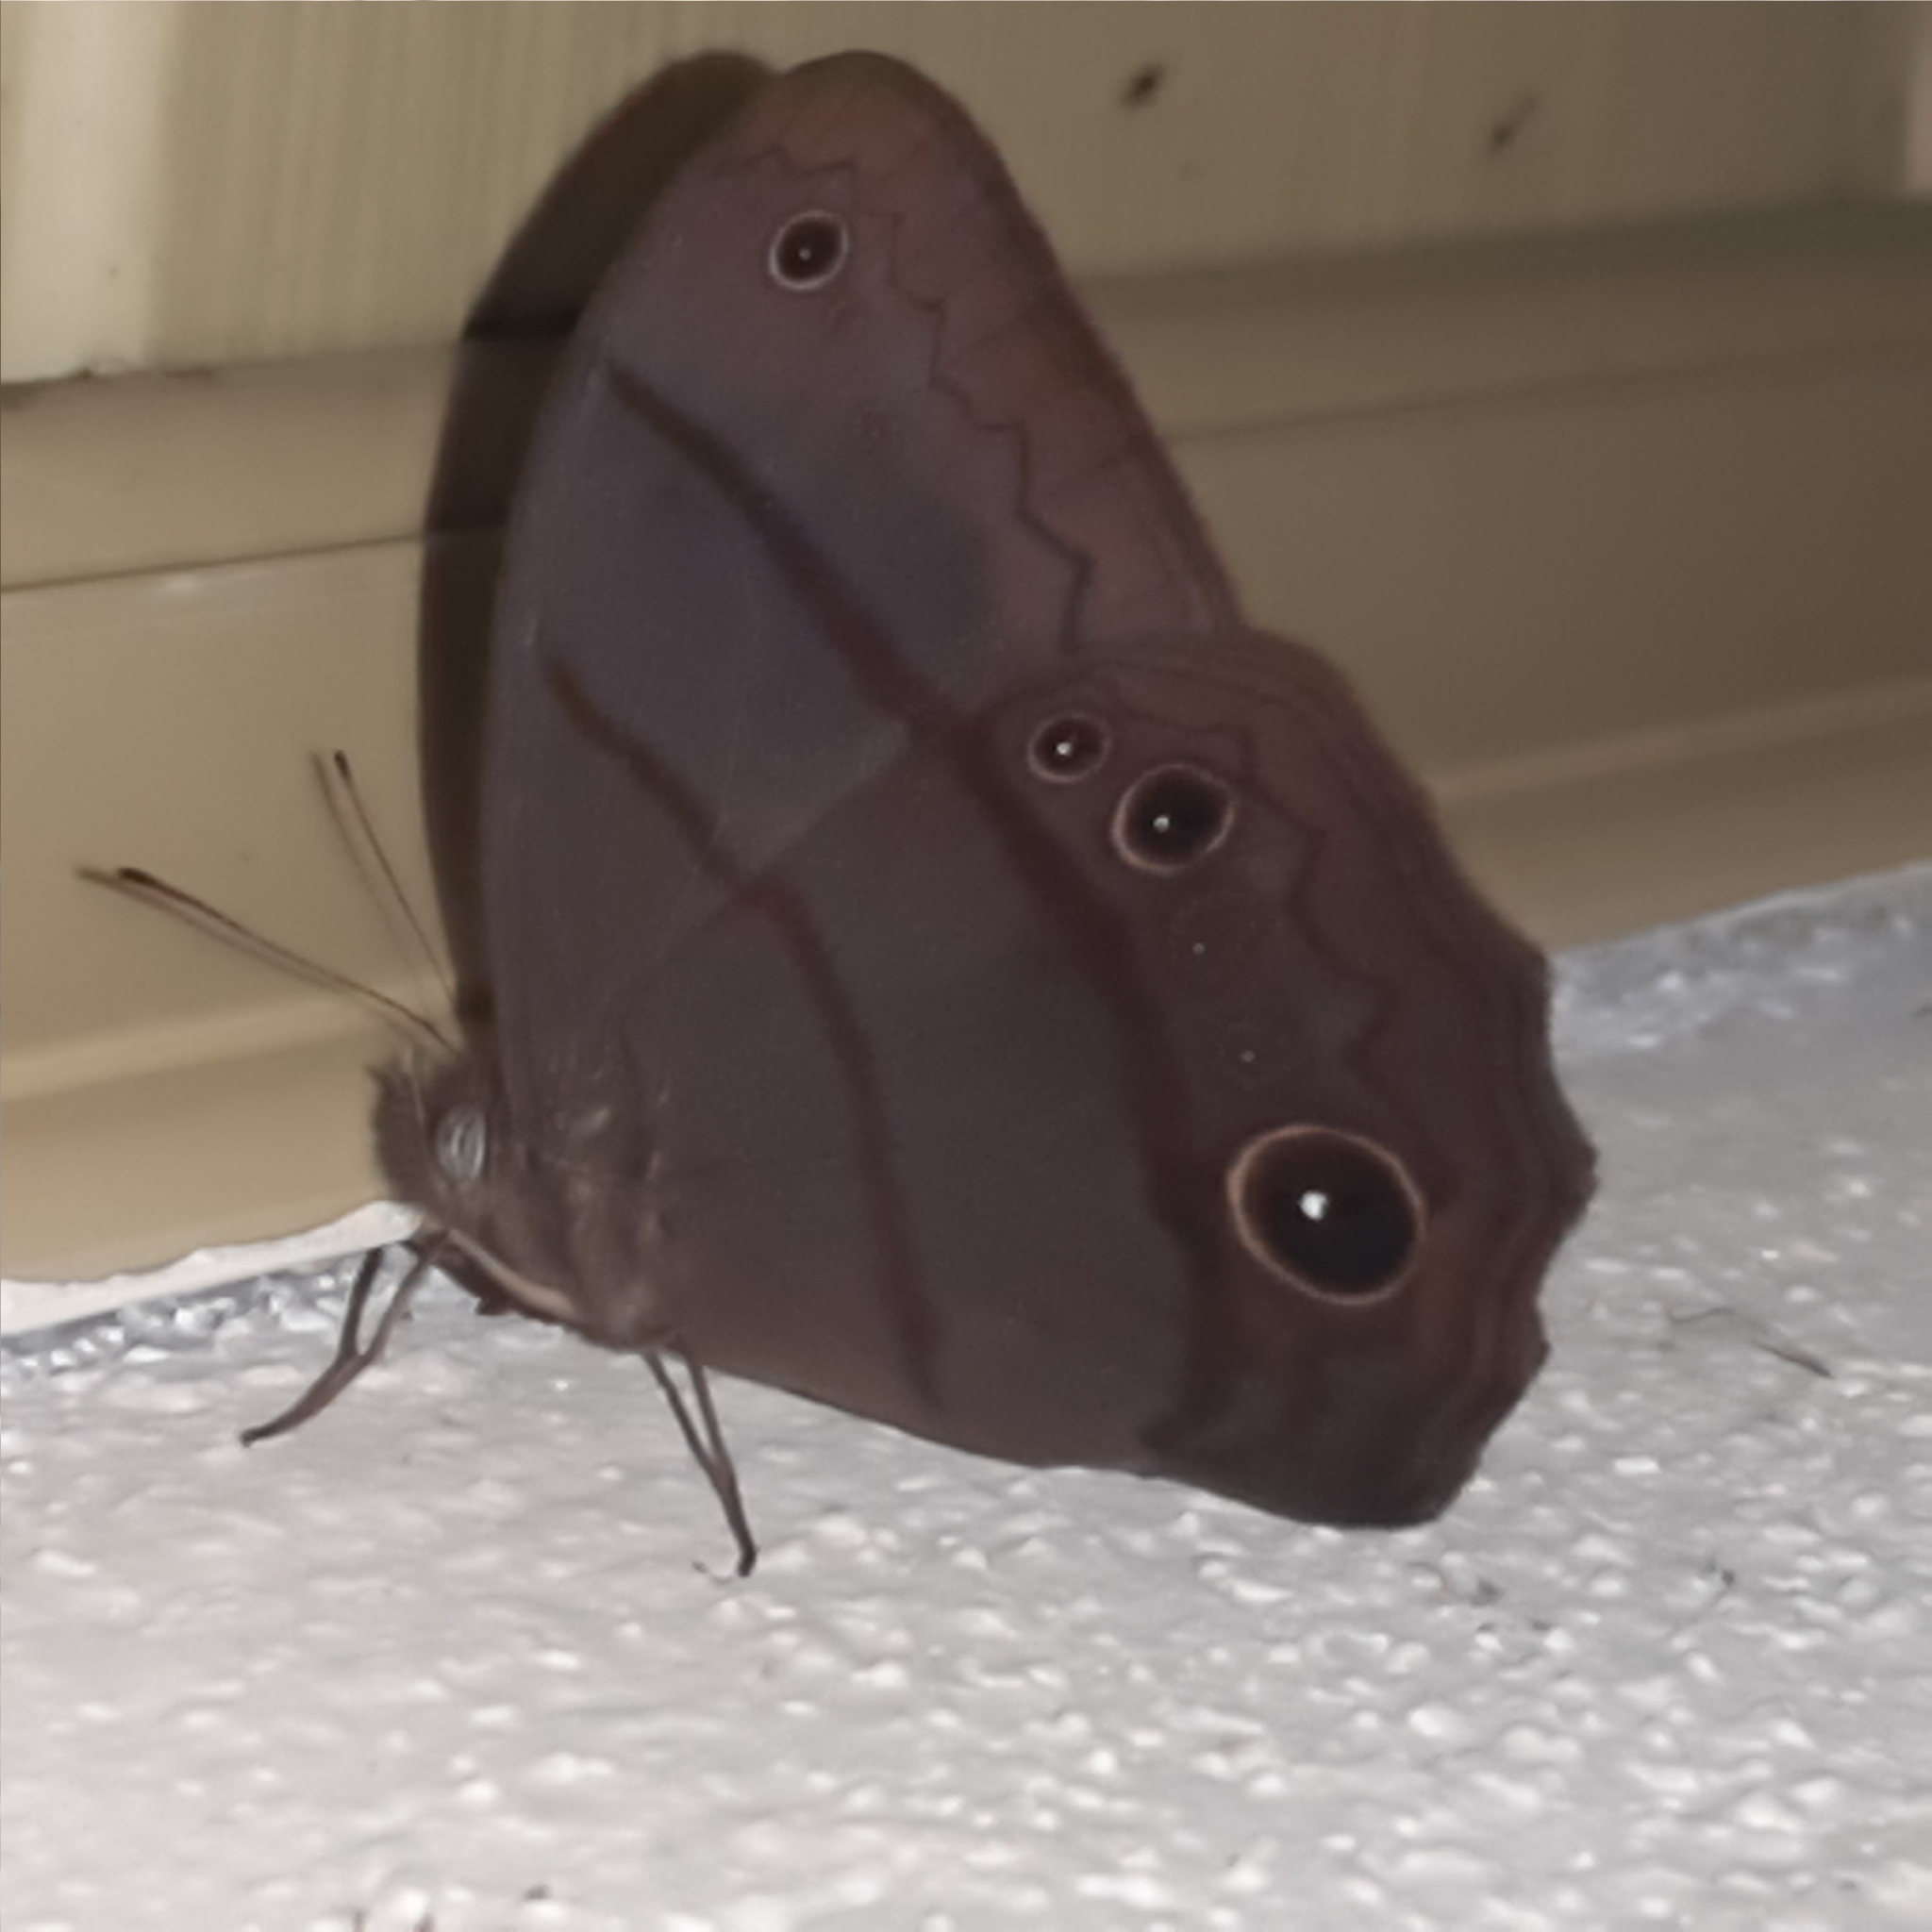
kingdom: Animalia
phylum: Arthropoda
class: Insecta
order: Lepidoptera
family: Nymphalidae
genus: Satyrotaygetis
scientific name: Satyrotaygetis satyrina
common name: Wide-bordered satyr
